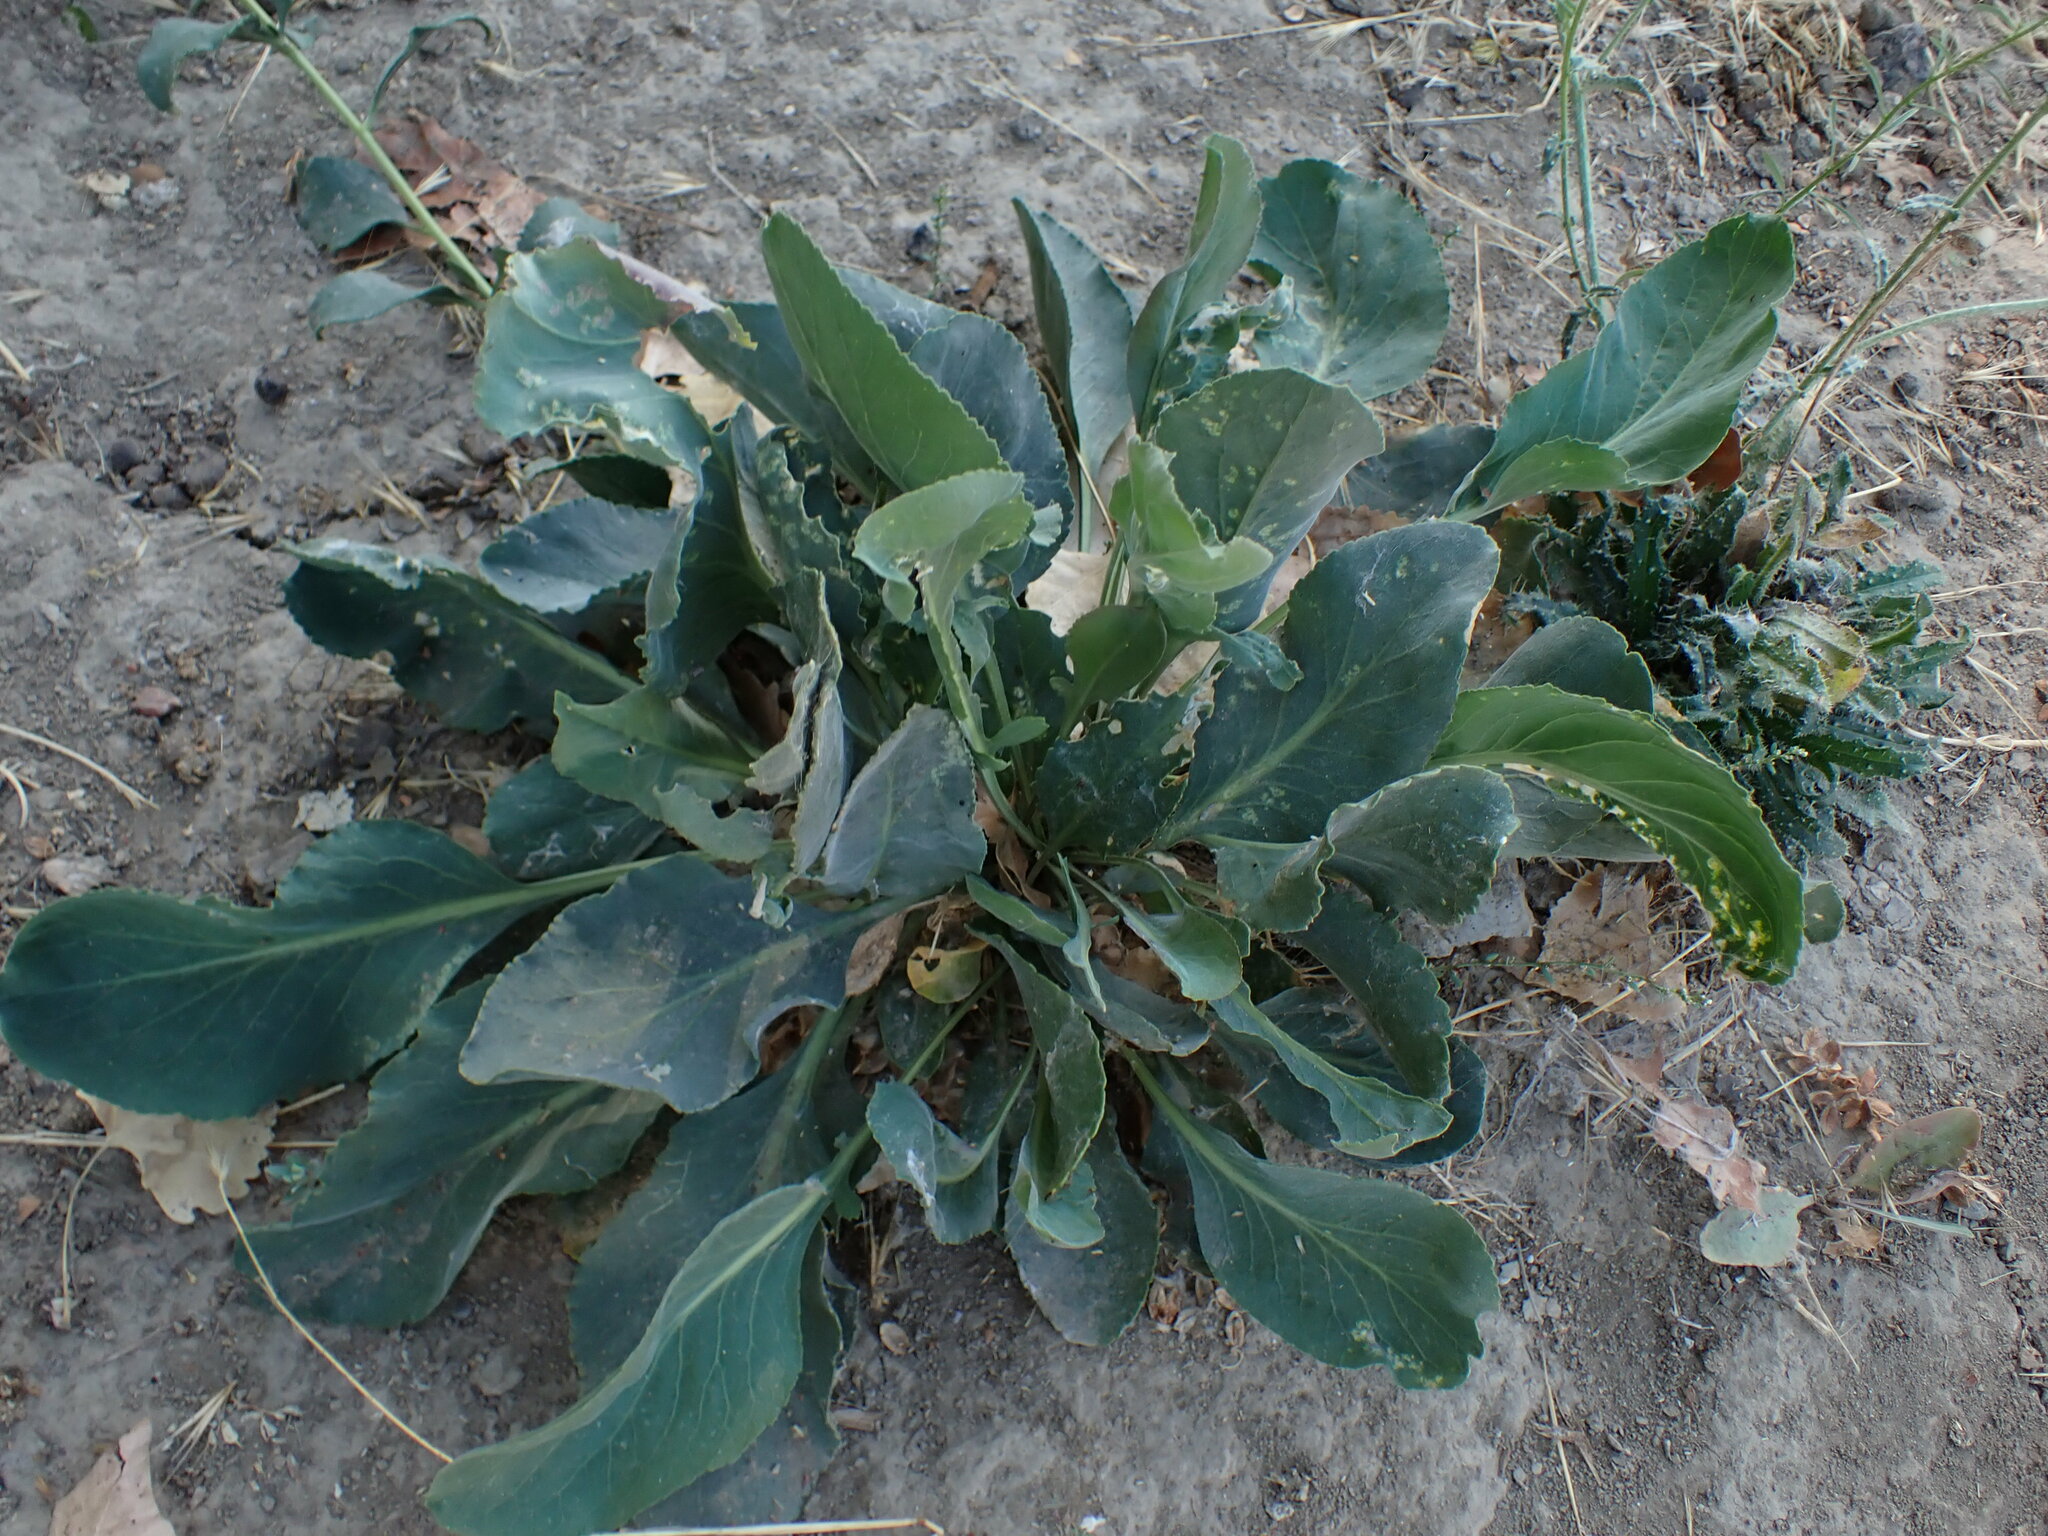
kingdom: Plantae
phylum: Tracheophyta
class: Magnoliopsida
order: Brassicales
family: Brassicaceae
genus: Lepidium
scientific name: Lepidium latifolium
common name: Dittander
